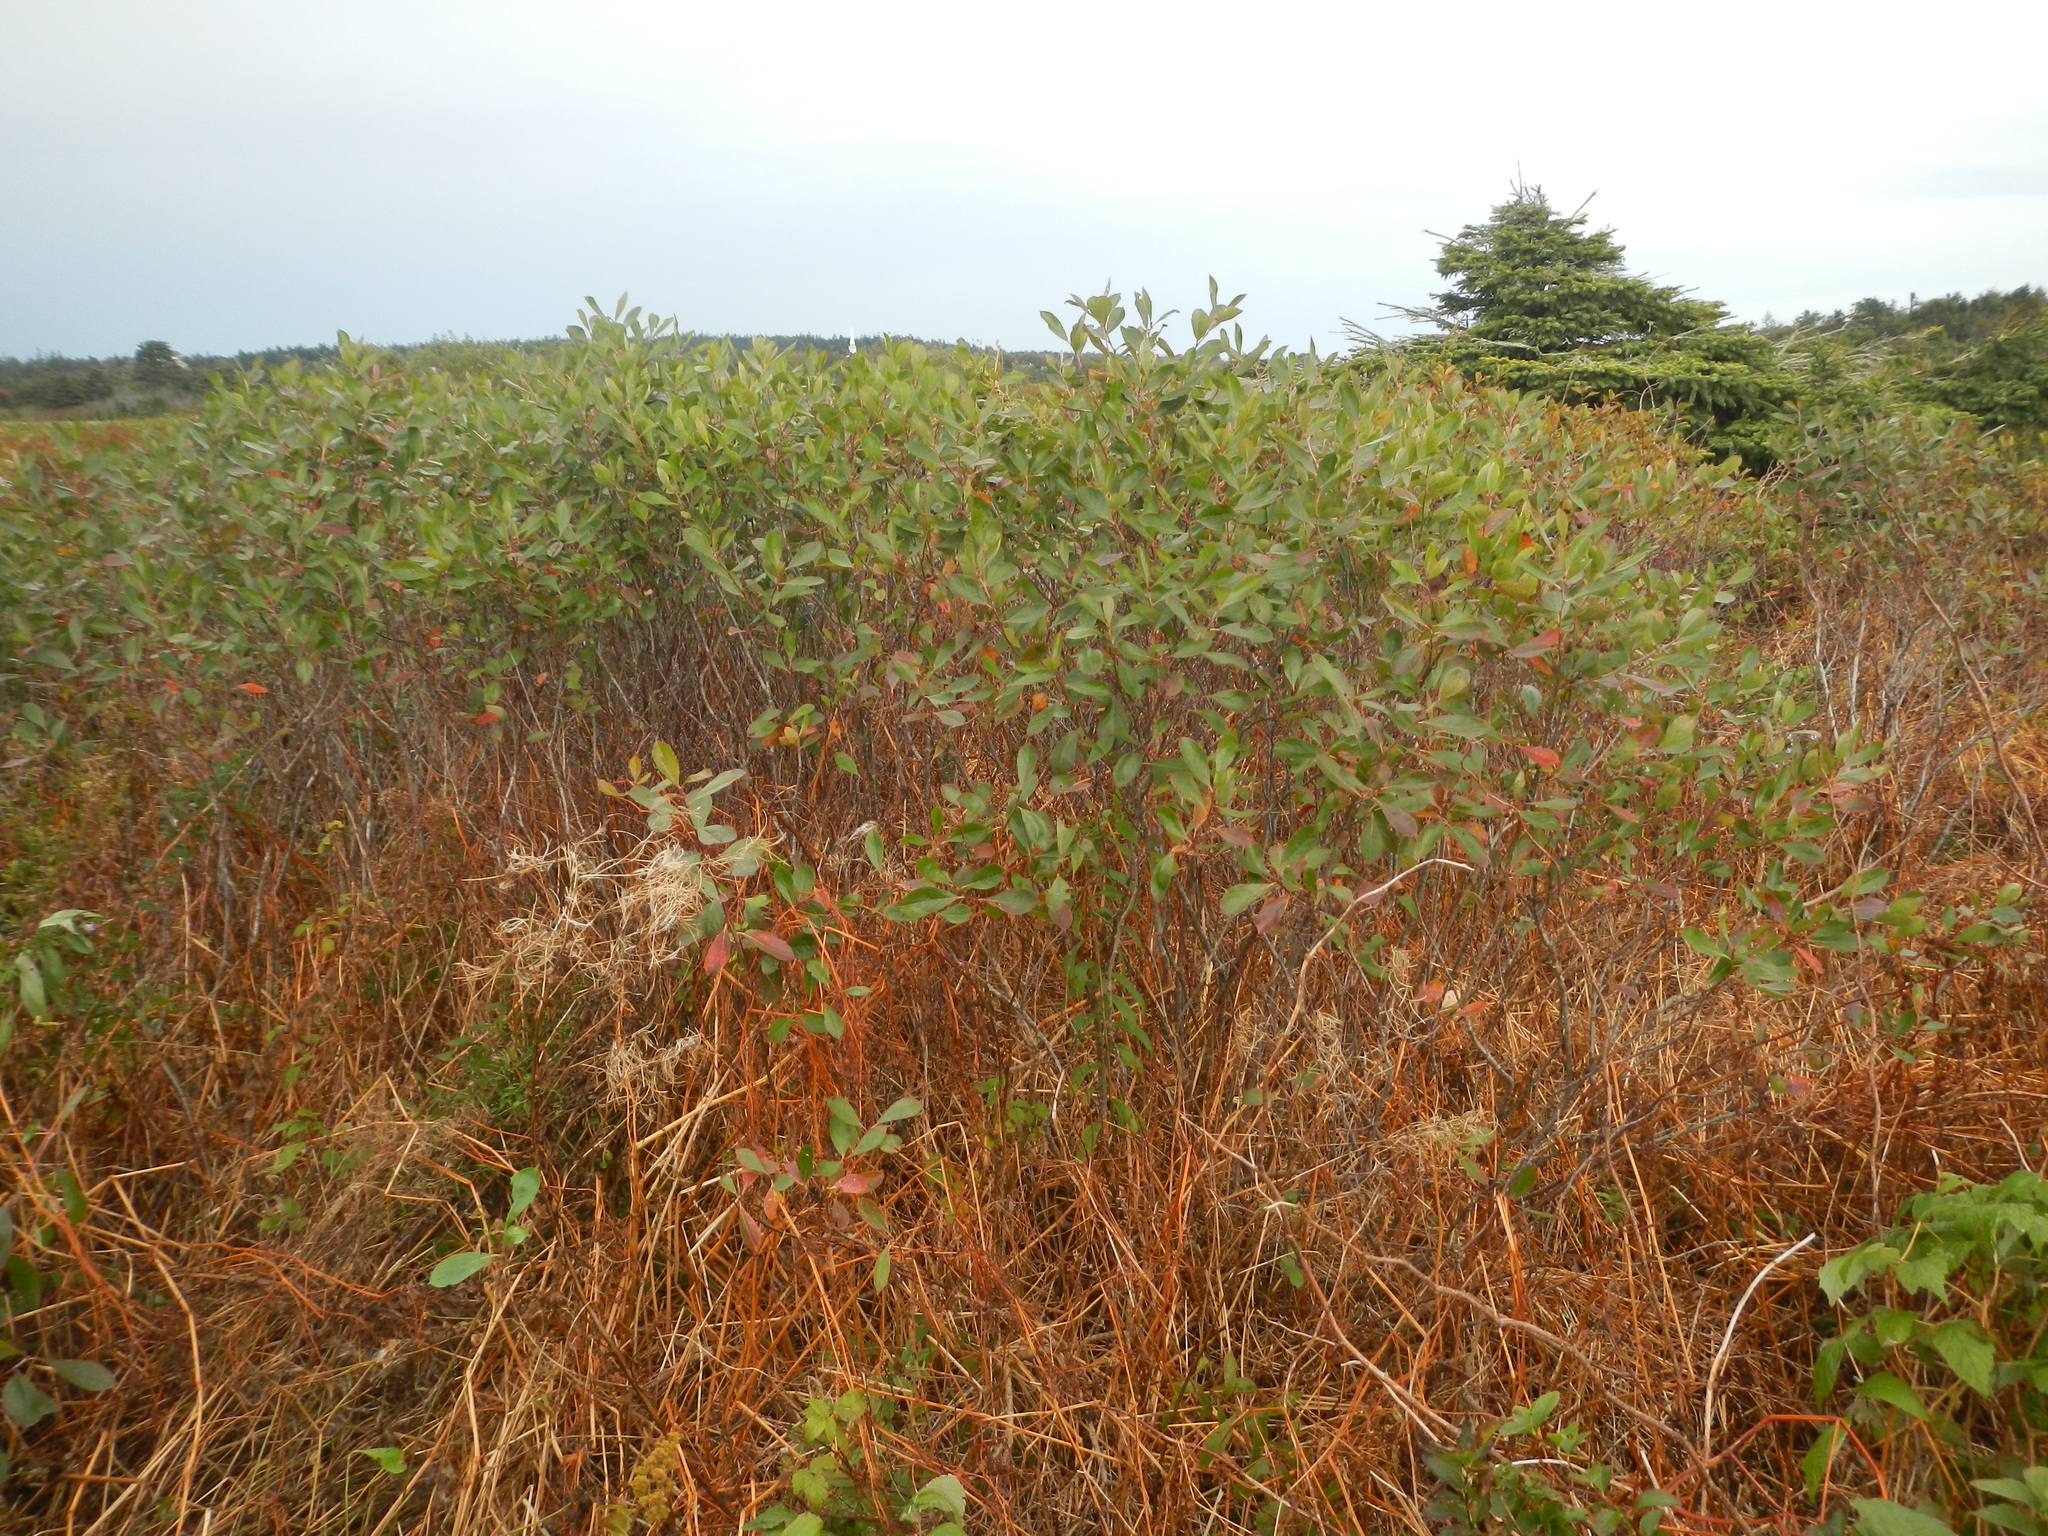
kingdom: Plantae
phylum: Tracheophyta
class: Magnoliopsida
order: Rosales
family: Rosaceae
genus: Aronia
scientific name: Aronia melanocarpa
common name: Black chokeberry
